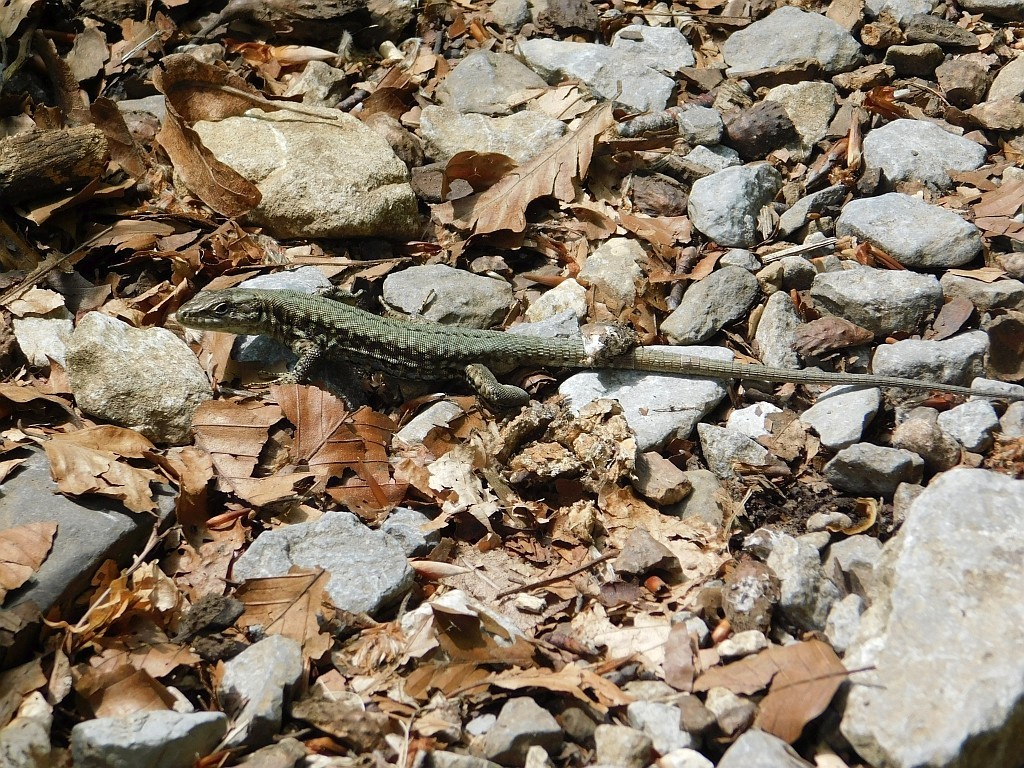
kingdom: Animalia
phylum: Chordata
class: Squamata
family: Lacertidae
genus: Podarcis
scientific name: Podarcis muralis
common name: Common wall lizard
